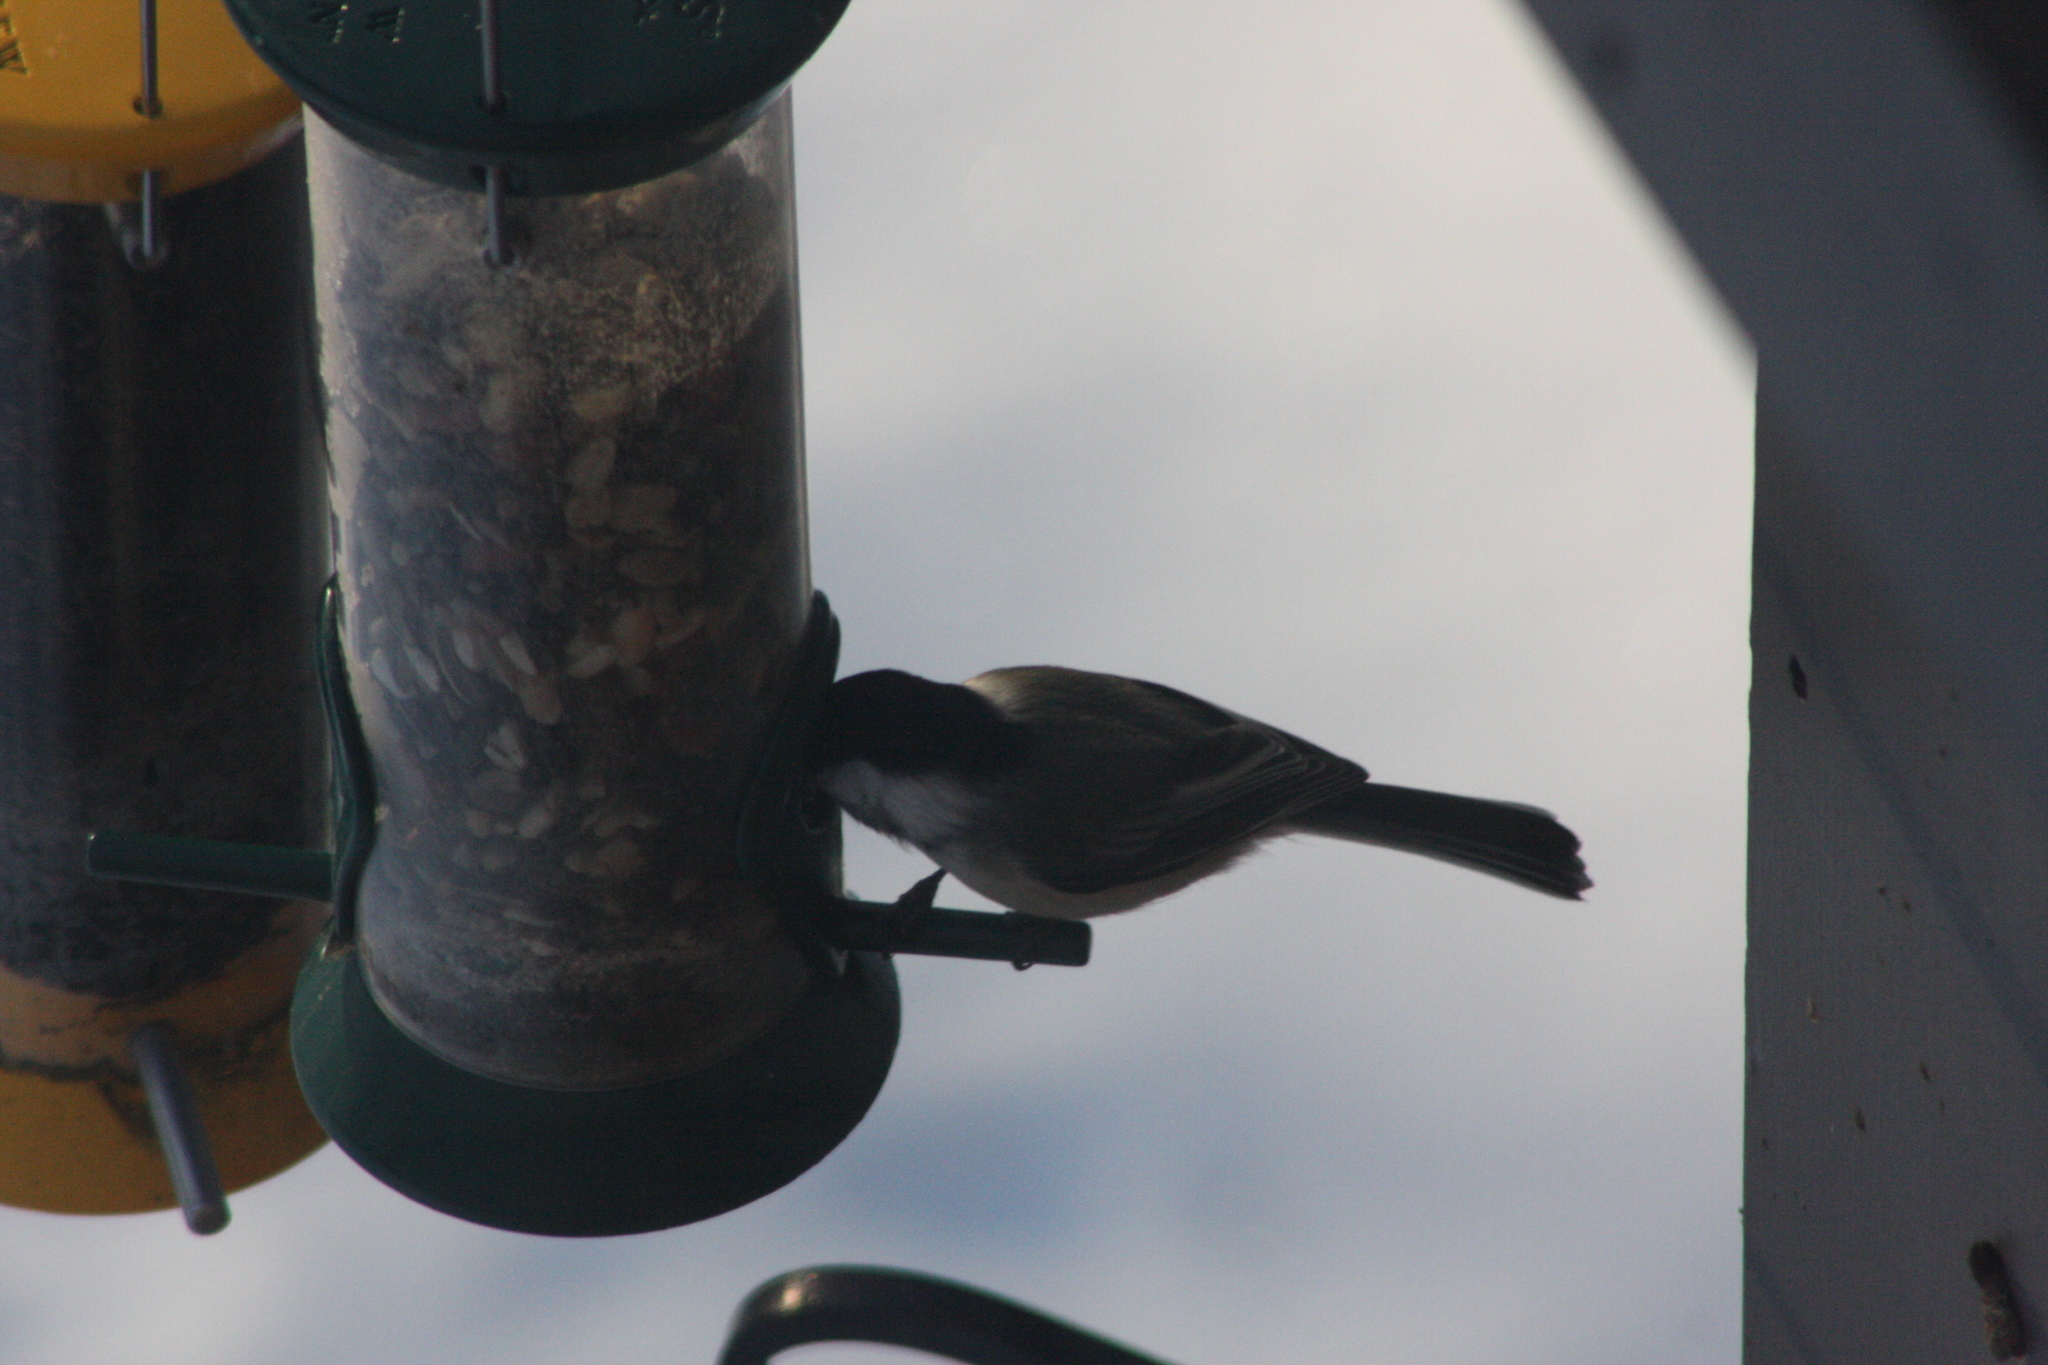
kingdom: Animalia
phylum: Chordata
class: Aves
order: Passeriformes
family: Paridae
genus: Poecile
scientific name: Poecile atricapillus
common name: Black-capped chickadee
